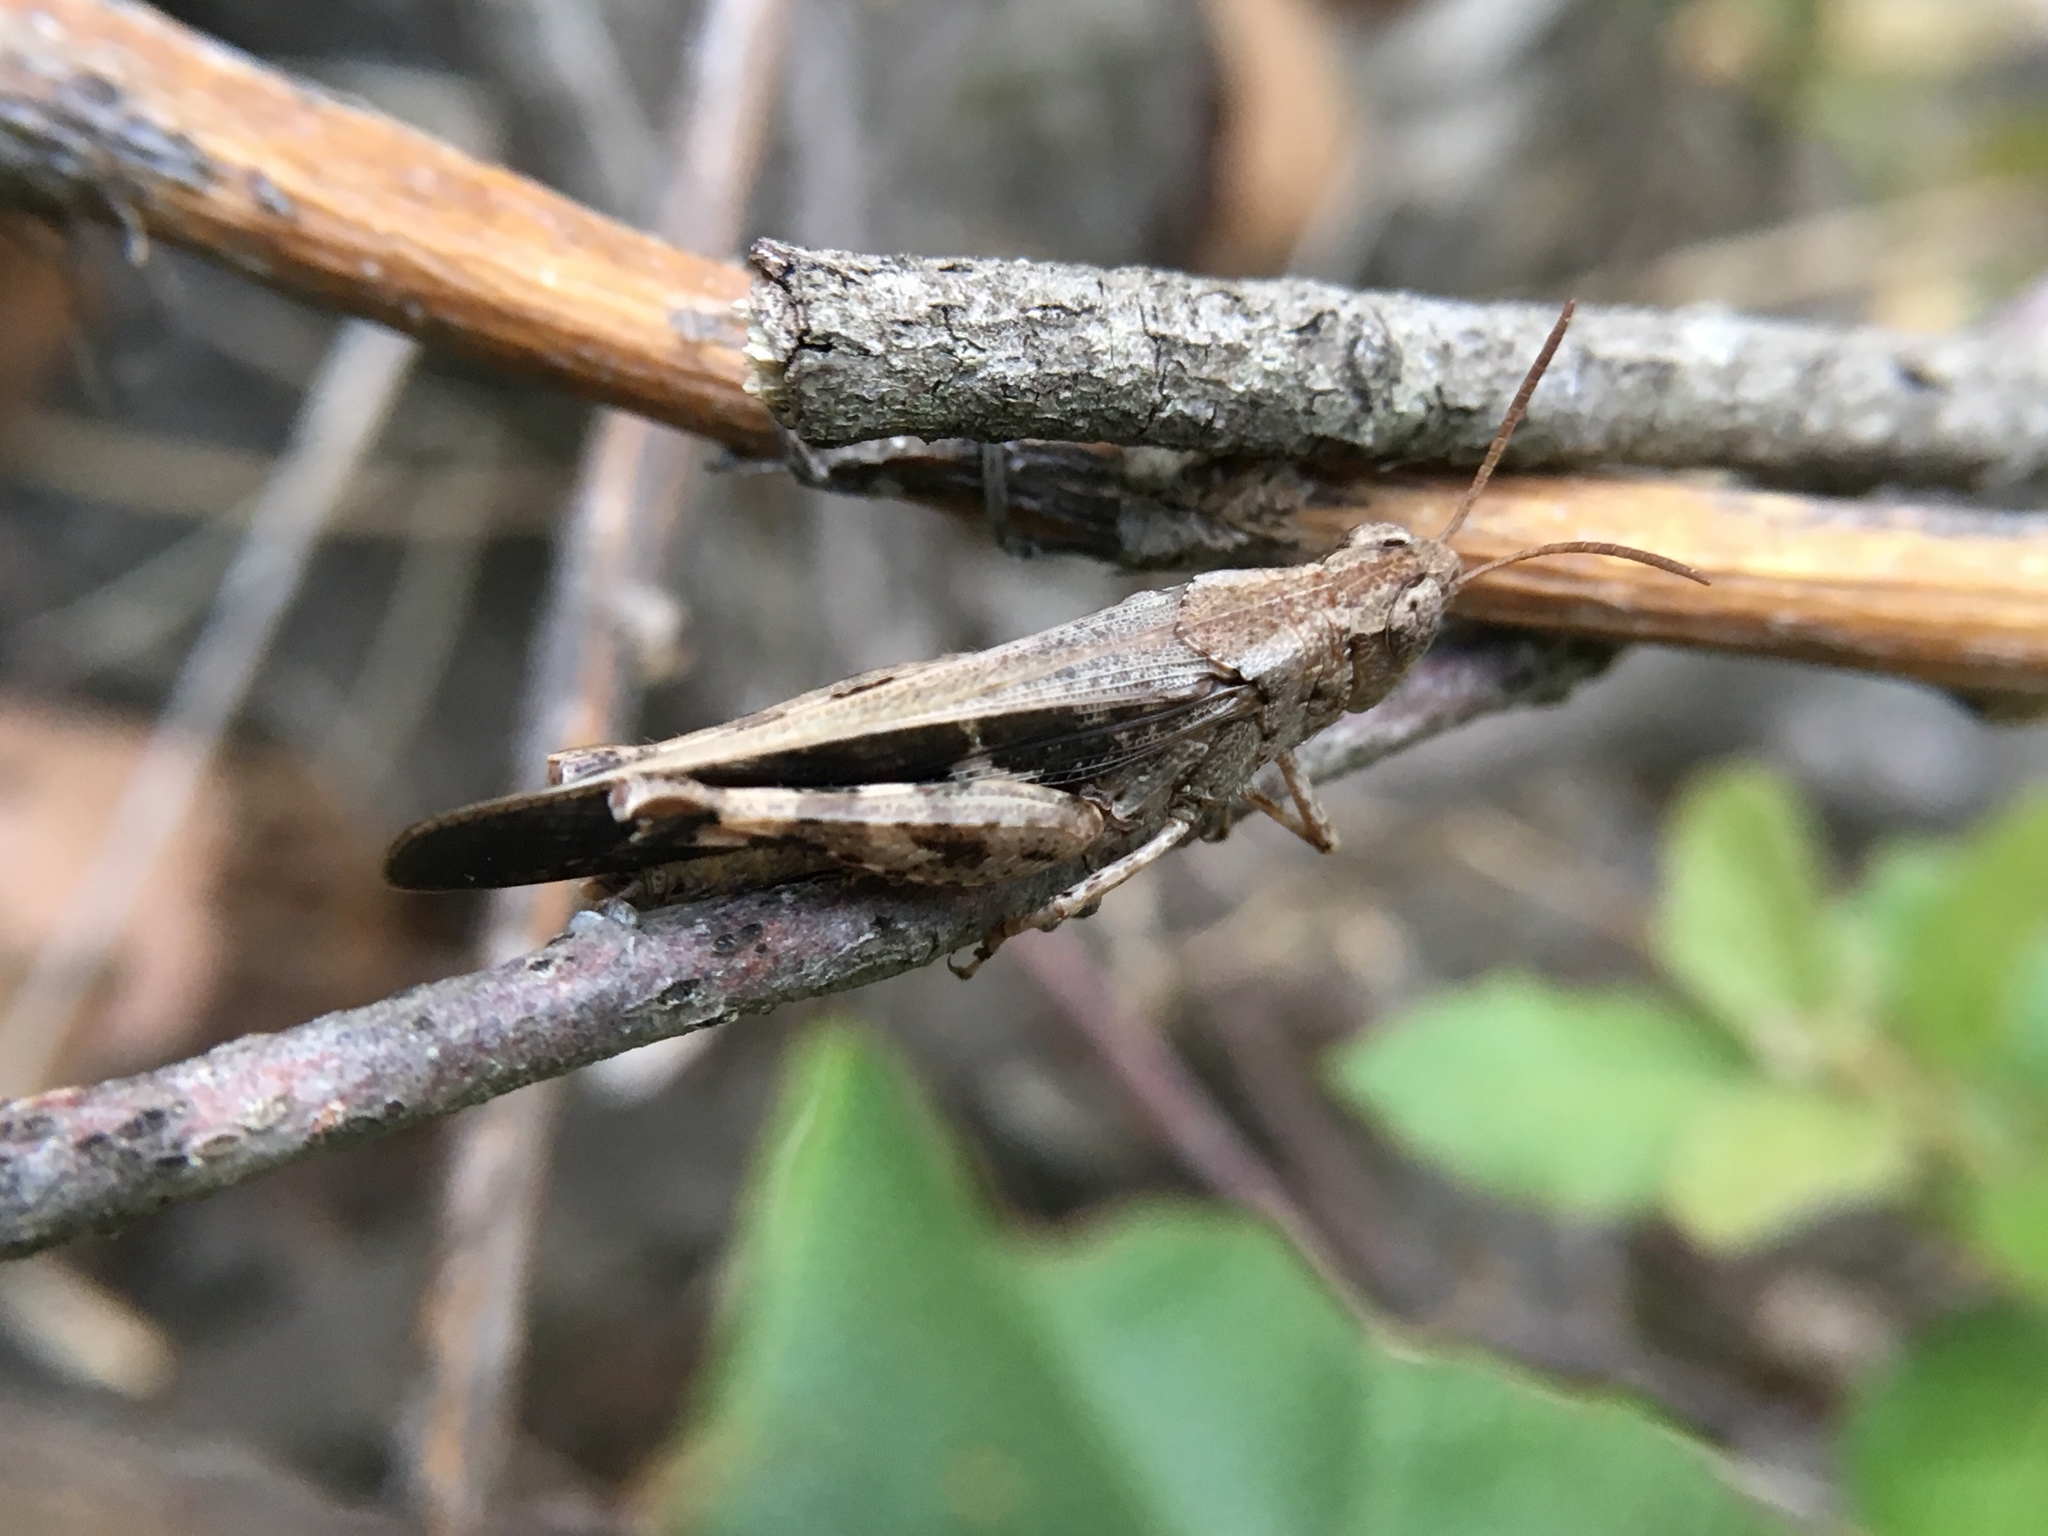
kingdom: Animalia
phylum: Arthropoda
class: Insecta
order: Orthoptera
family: Acrididae
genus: Aiolopus
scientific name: Aiolopus strepens
